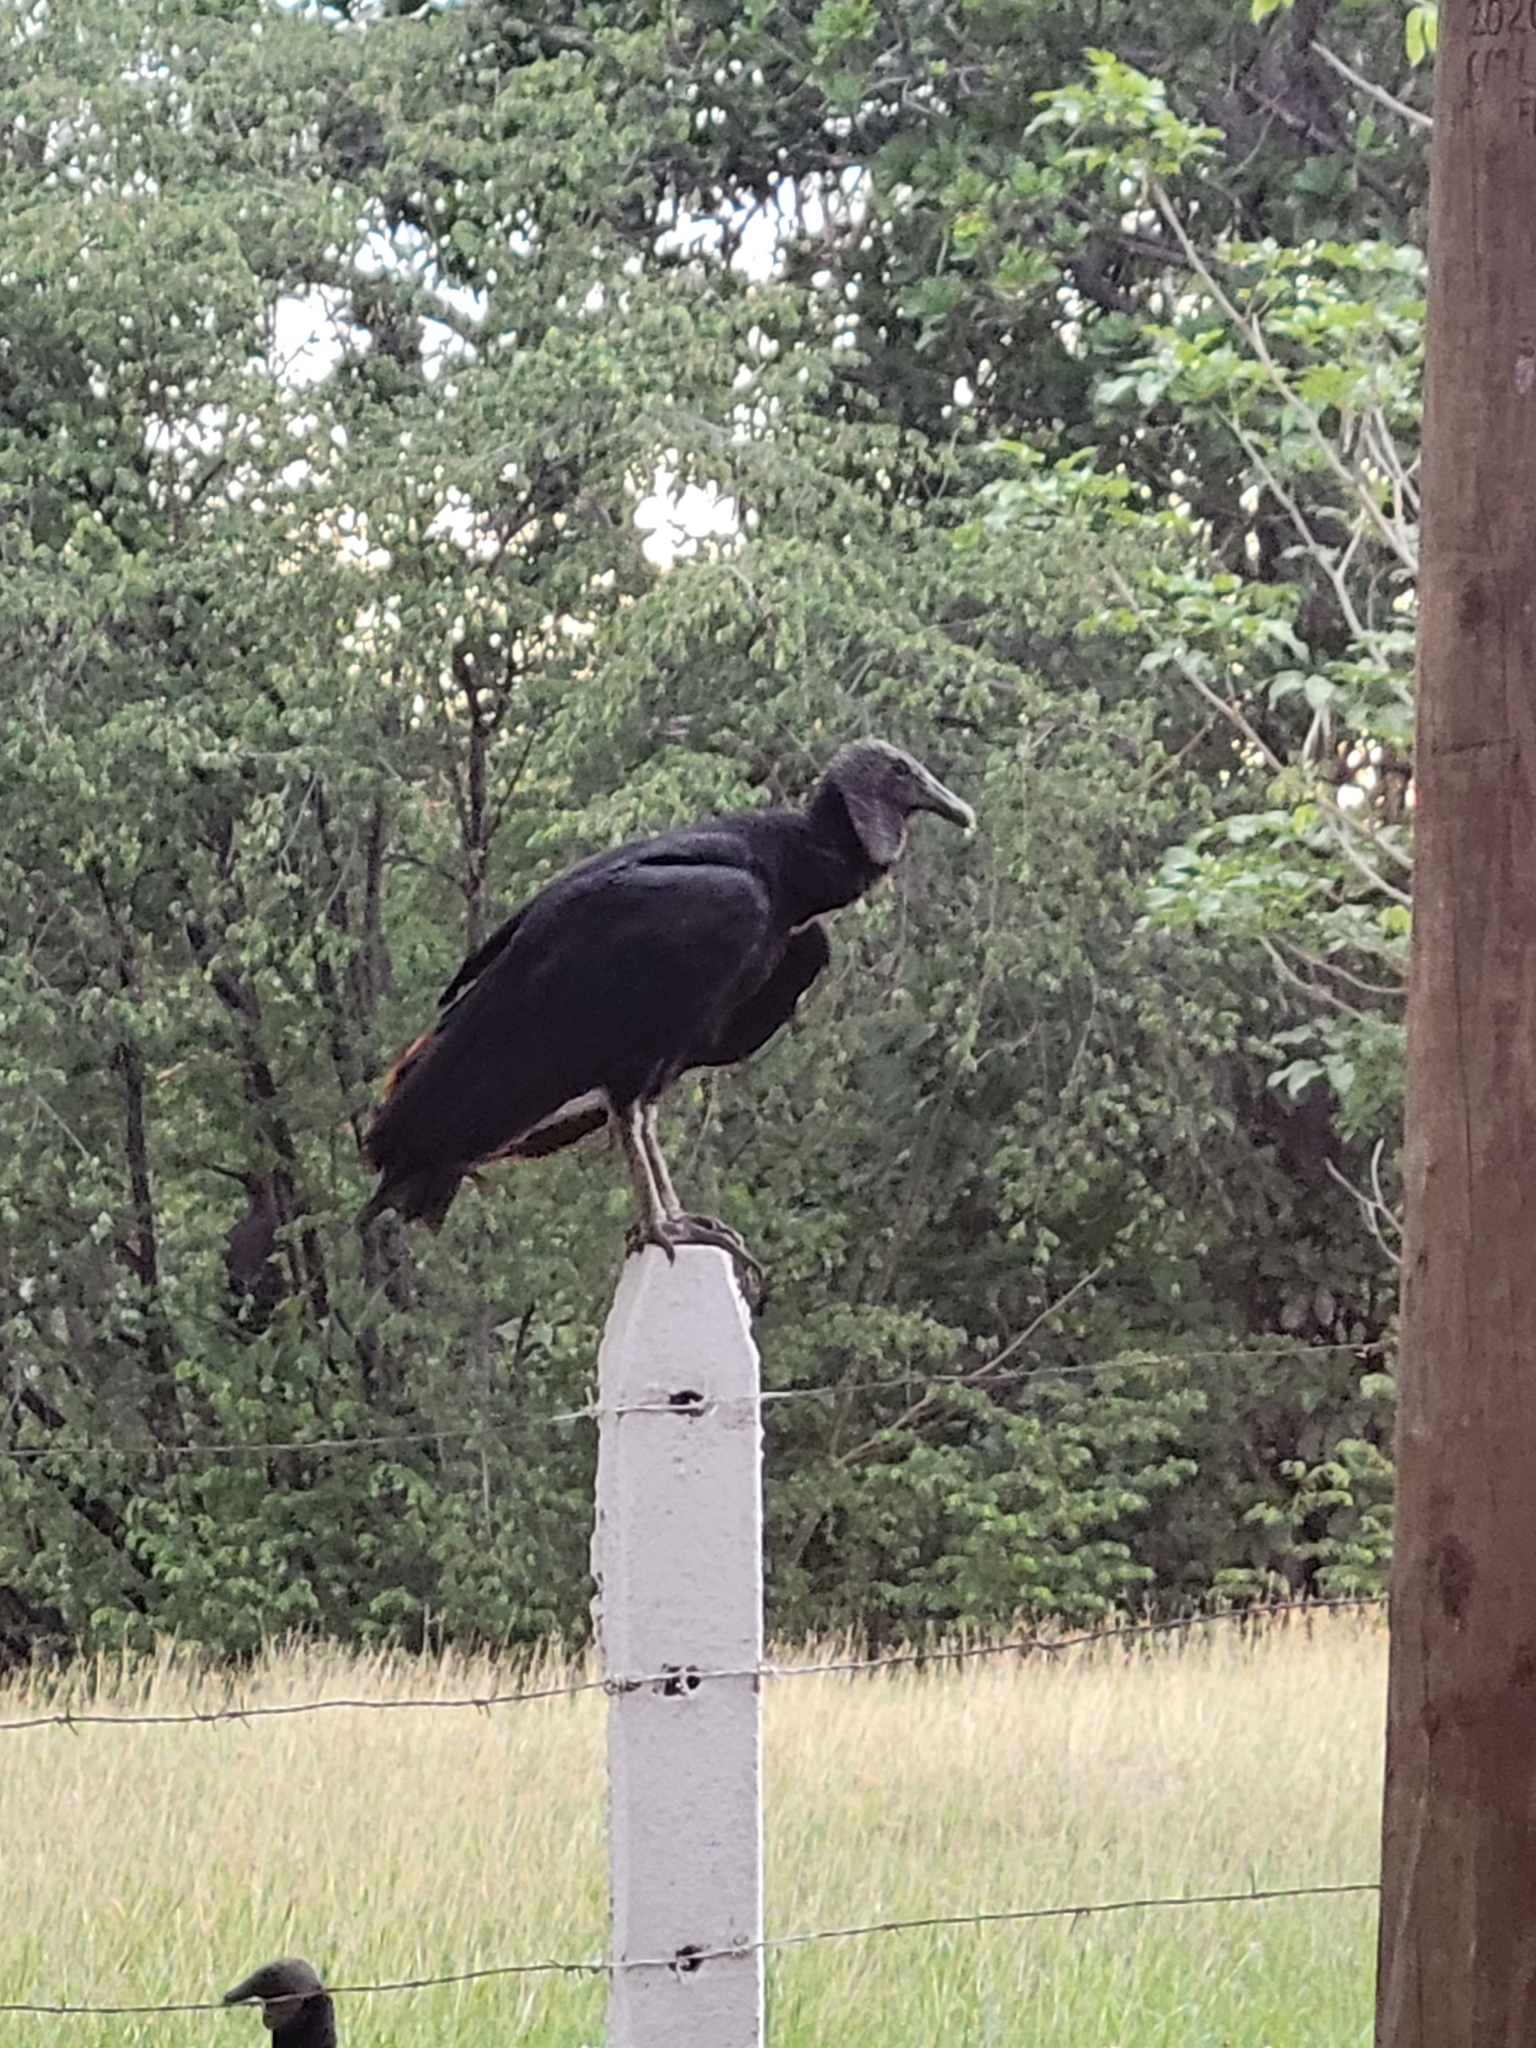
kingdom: Animalia
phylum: Chordata
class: Aves
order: Accipitriformes
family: Cathartidae
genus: Coragyps
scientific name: Coragyps atratus
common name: Black vulture
